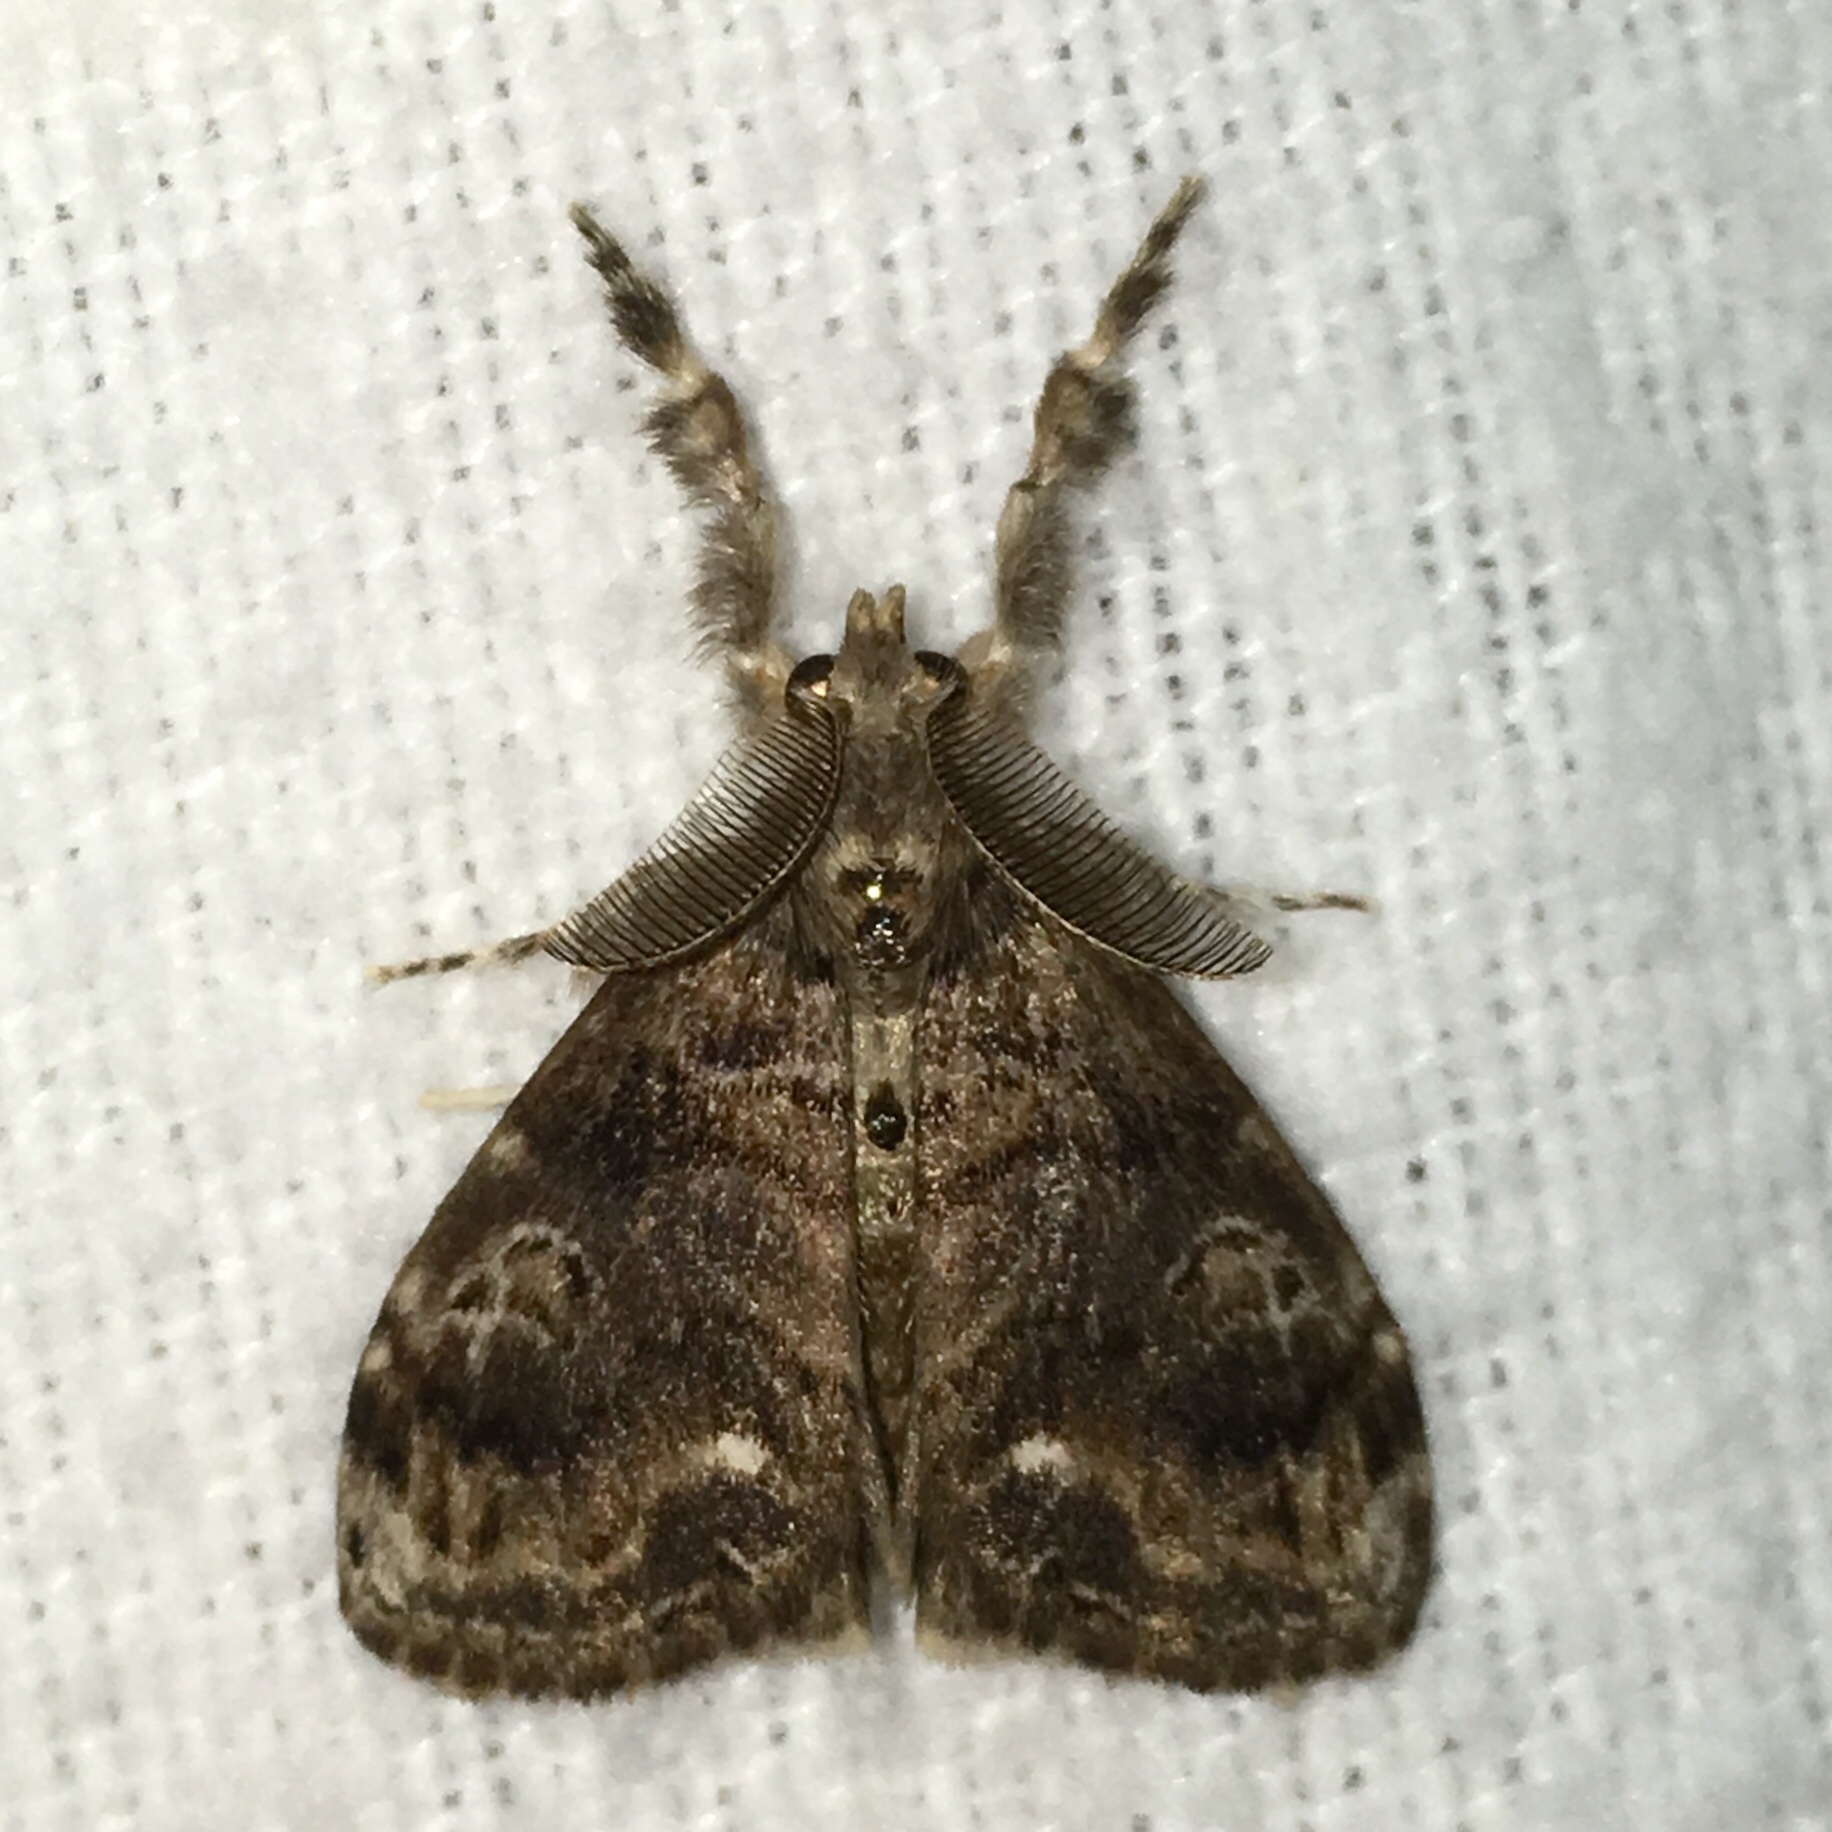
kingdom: Animalia
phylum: Arthropoda
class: Insecta
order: Lepidoptera
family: Erebidae
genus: Orgyia
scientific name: Orgyia definita
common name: Definite tussock moth
